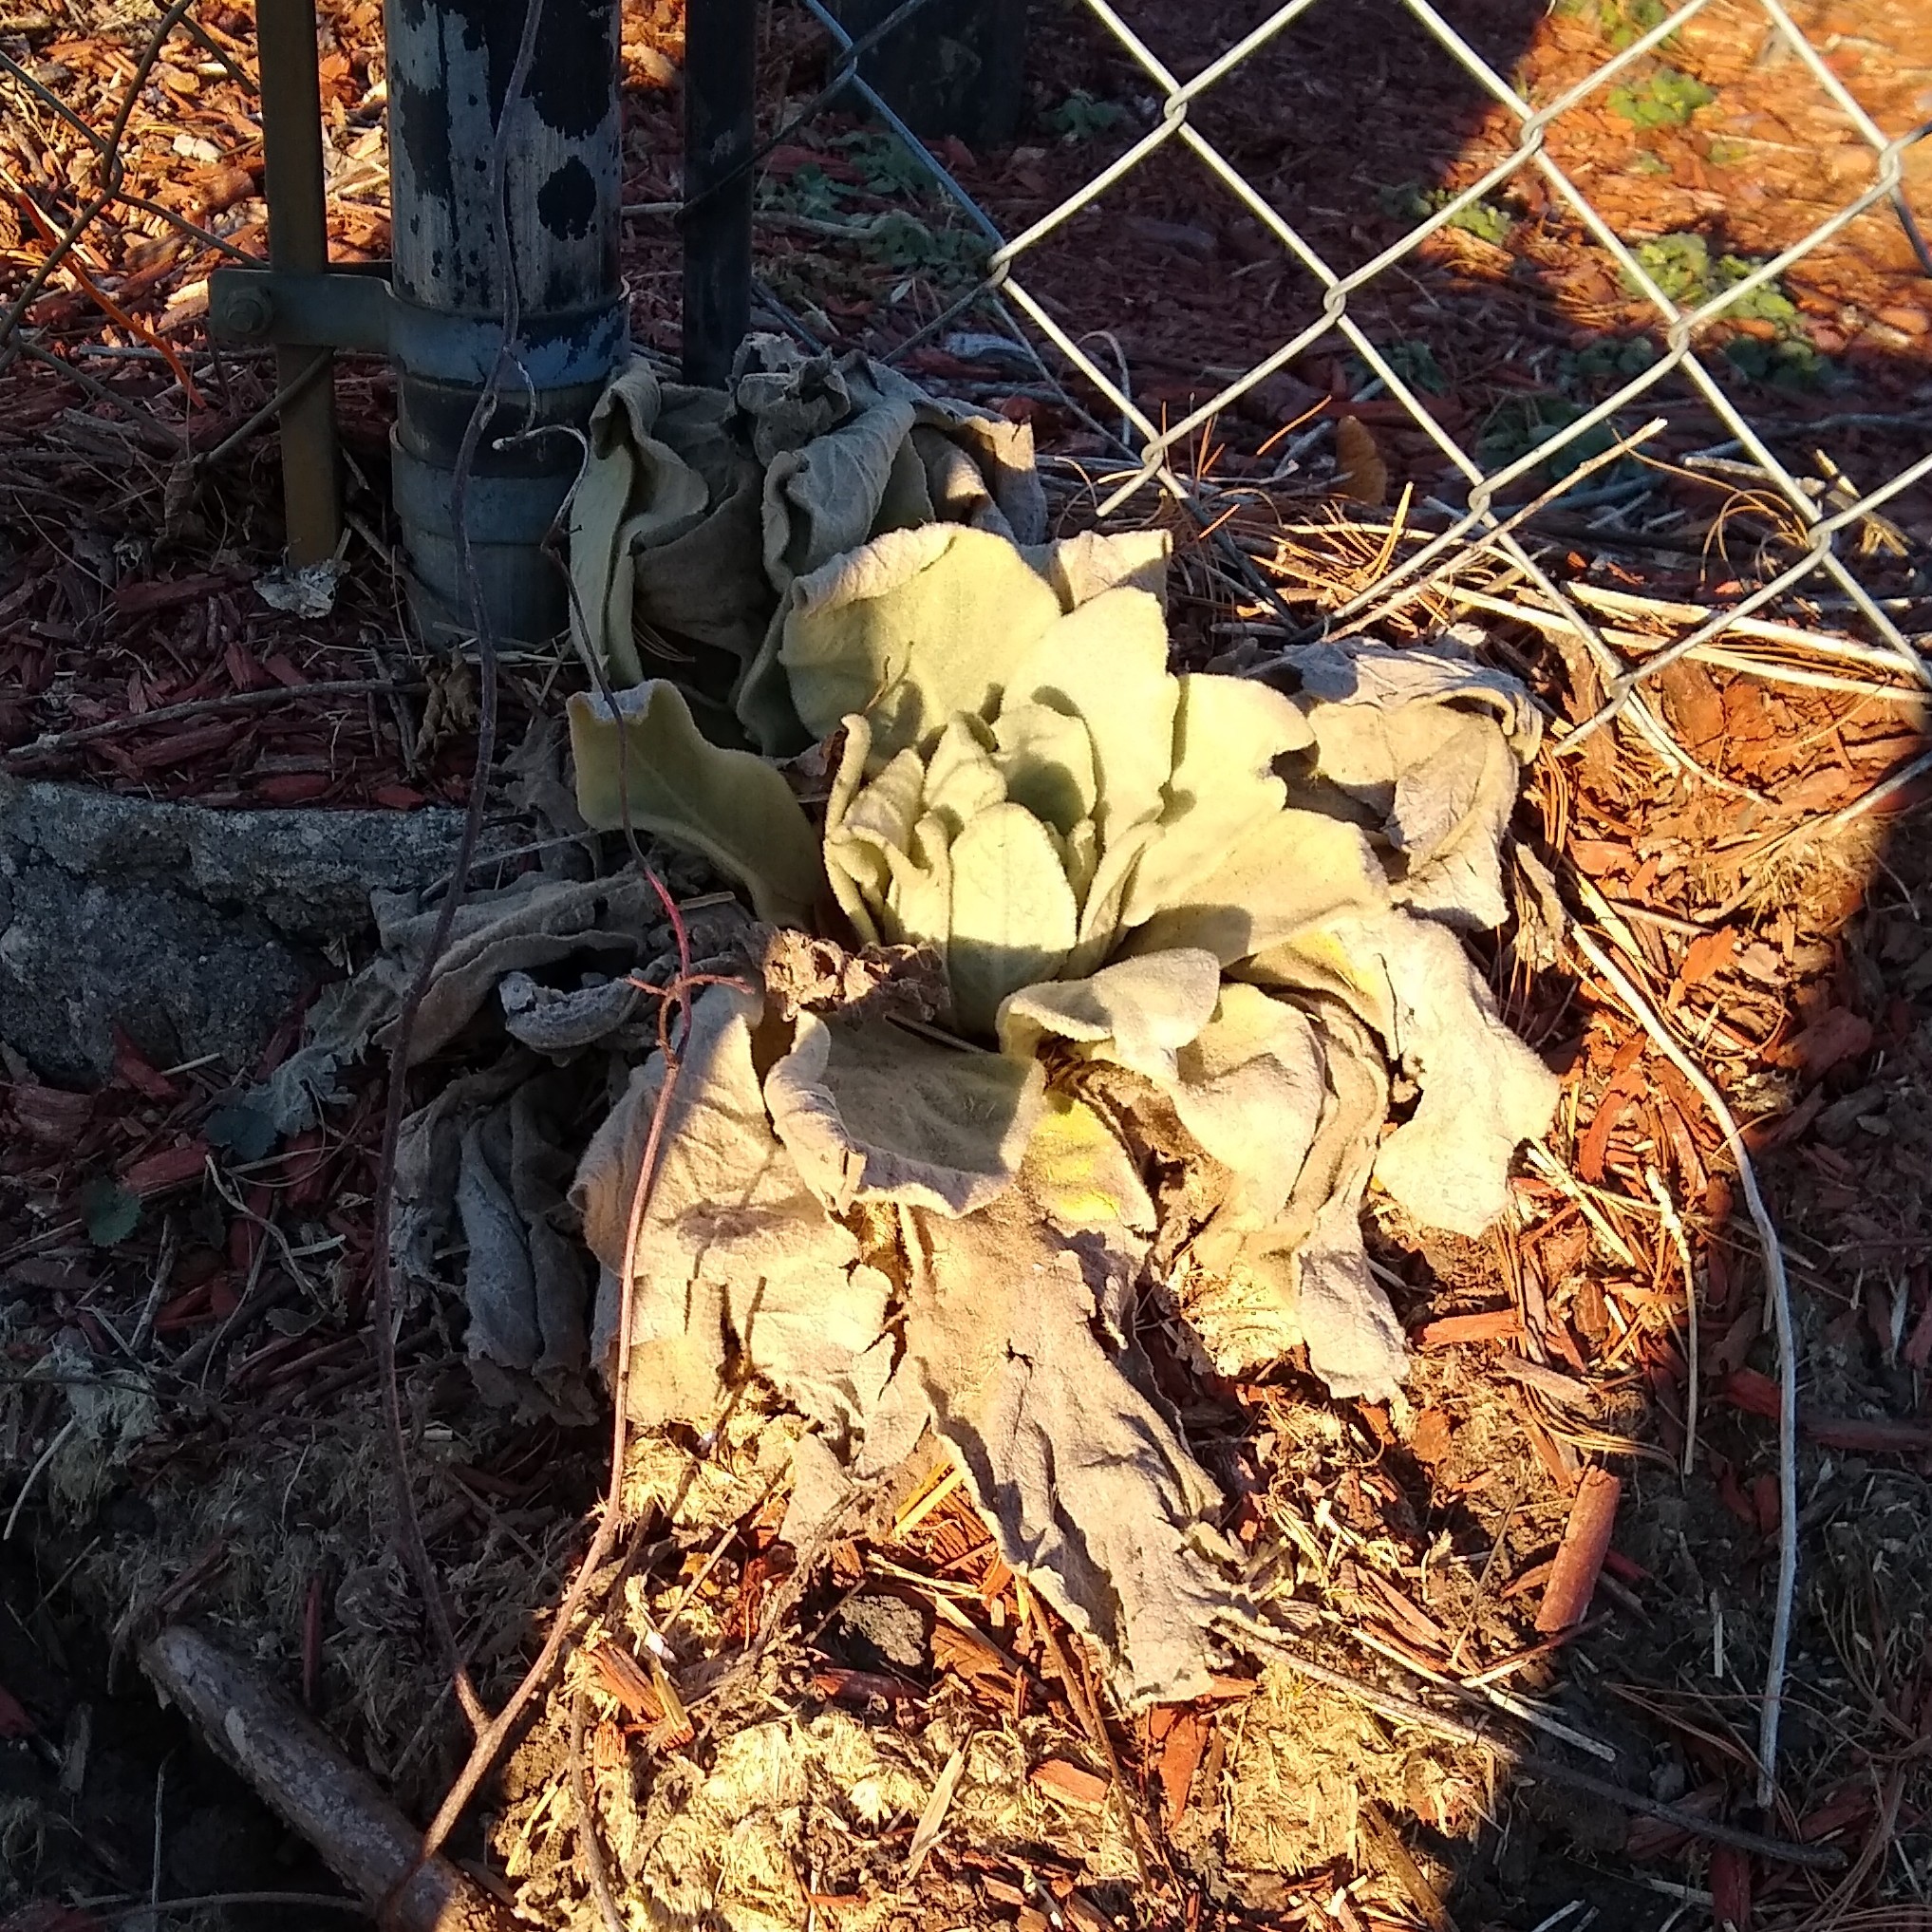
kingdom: Plantae
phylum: Tracheophyta
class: Magnoliopsida
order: Lamiales
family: Scrophulariaceae
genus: Verbascum
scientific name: Verbascum thapsus
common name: Common mullein
